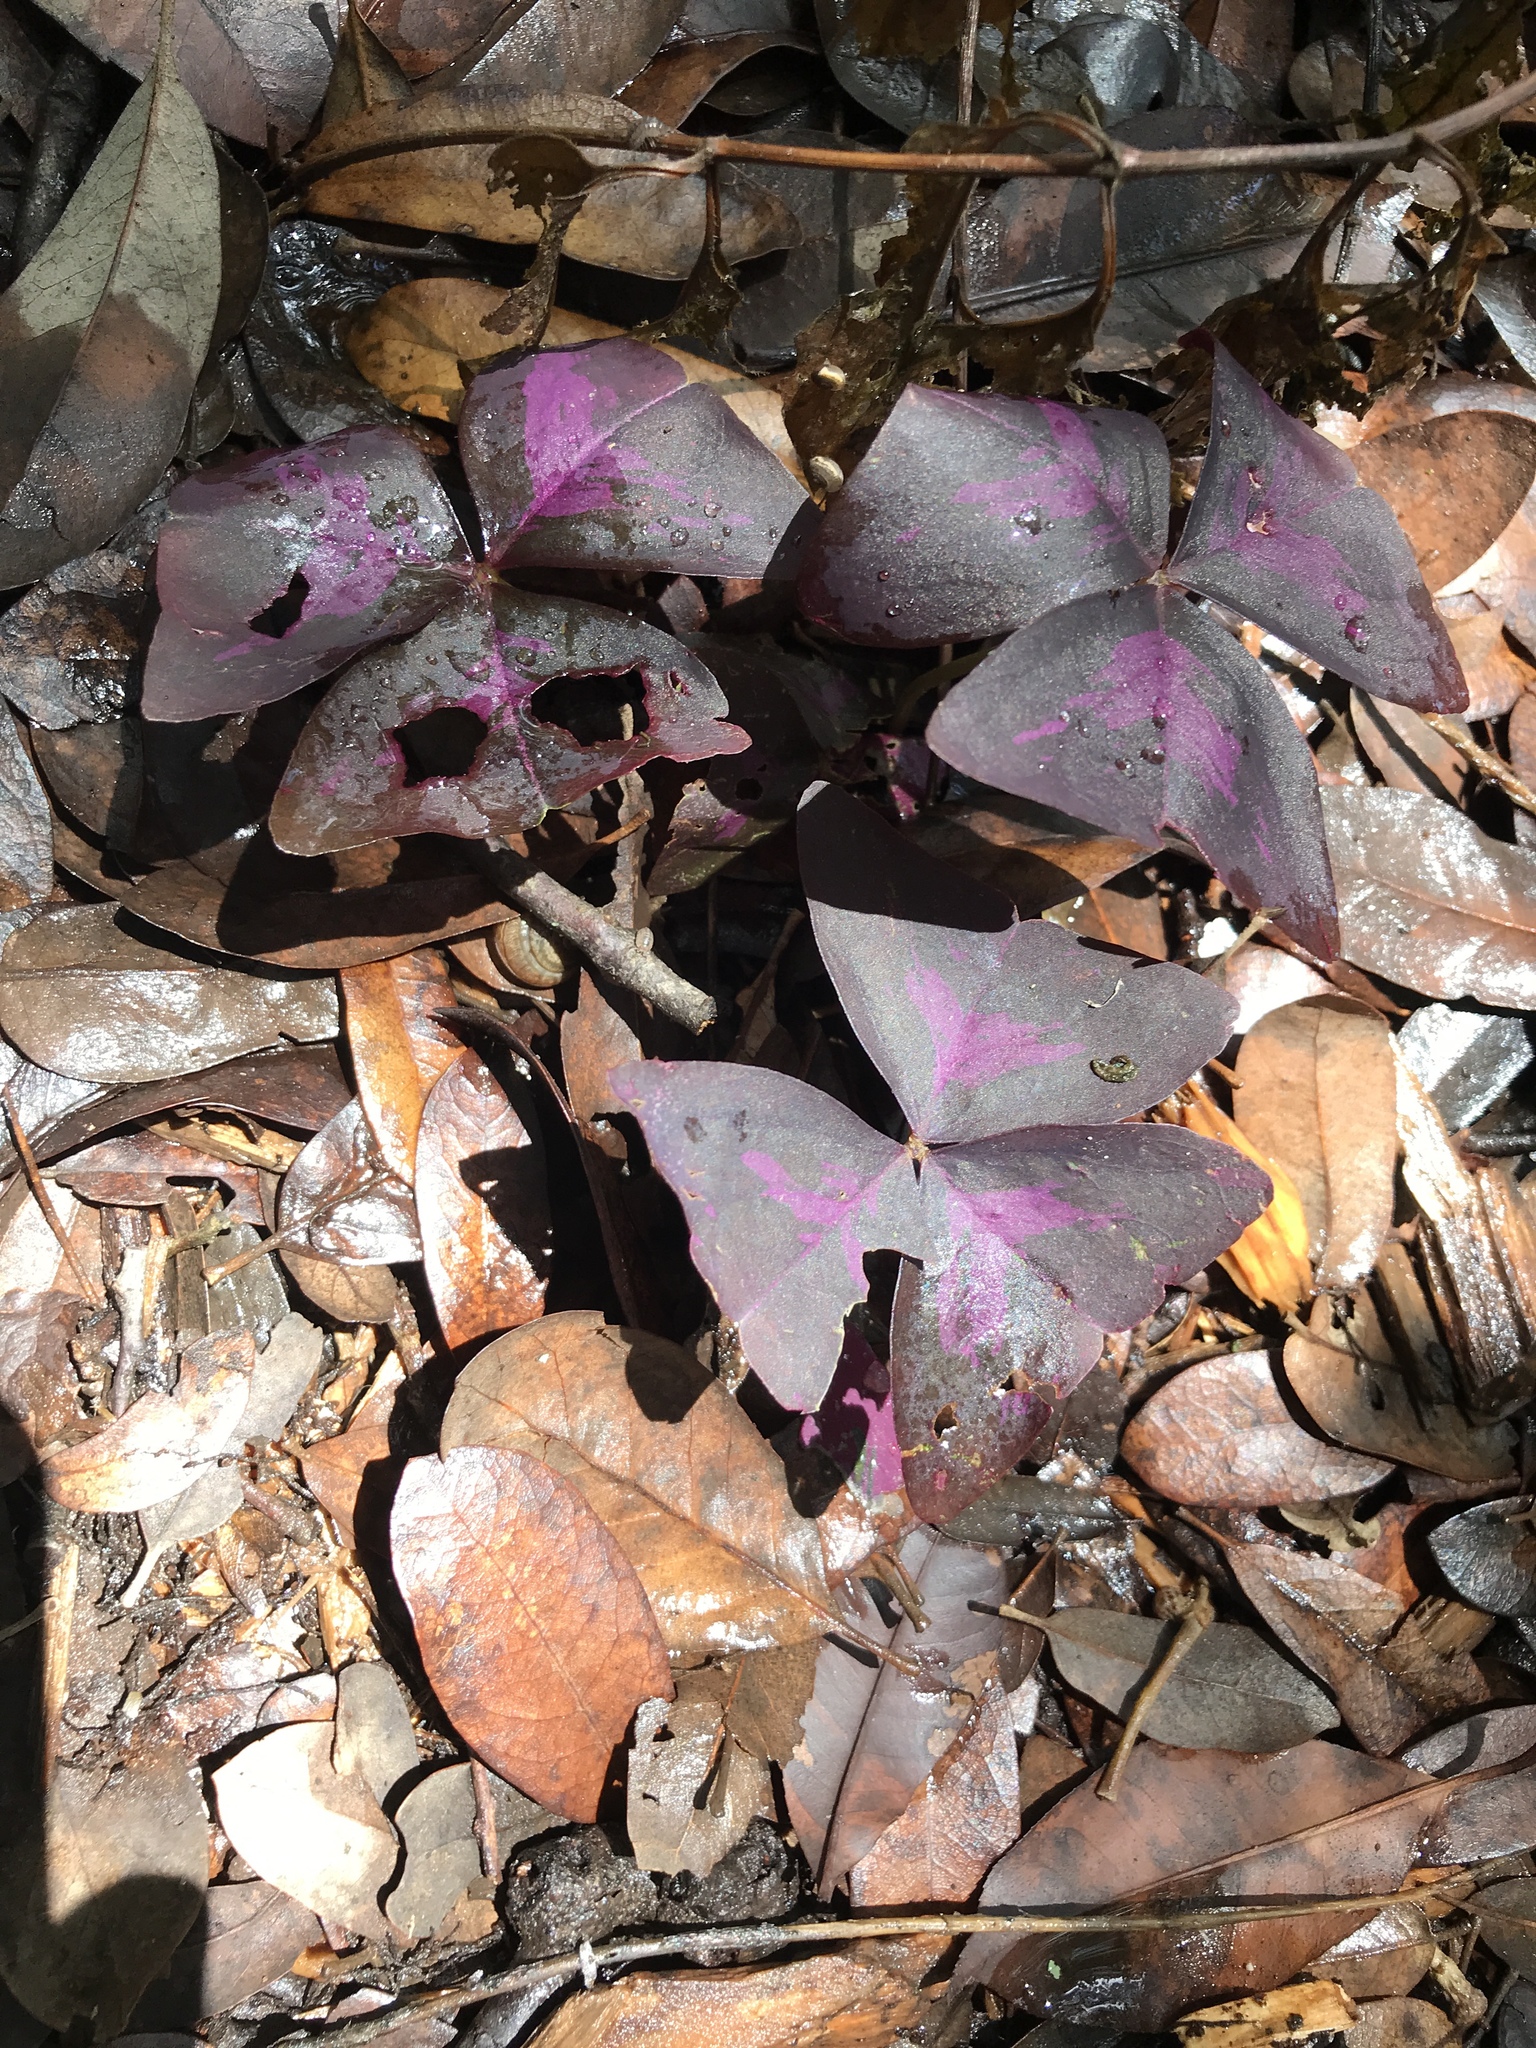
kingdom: Plantae
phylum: Tracheophyta
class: Magnoliopsida
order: Oxalidales
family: Oxalidaceae
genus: Oxalis
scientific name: Oxalis triangularis
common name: Wood sorrel
